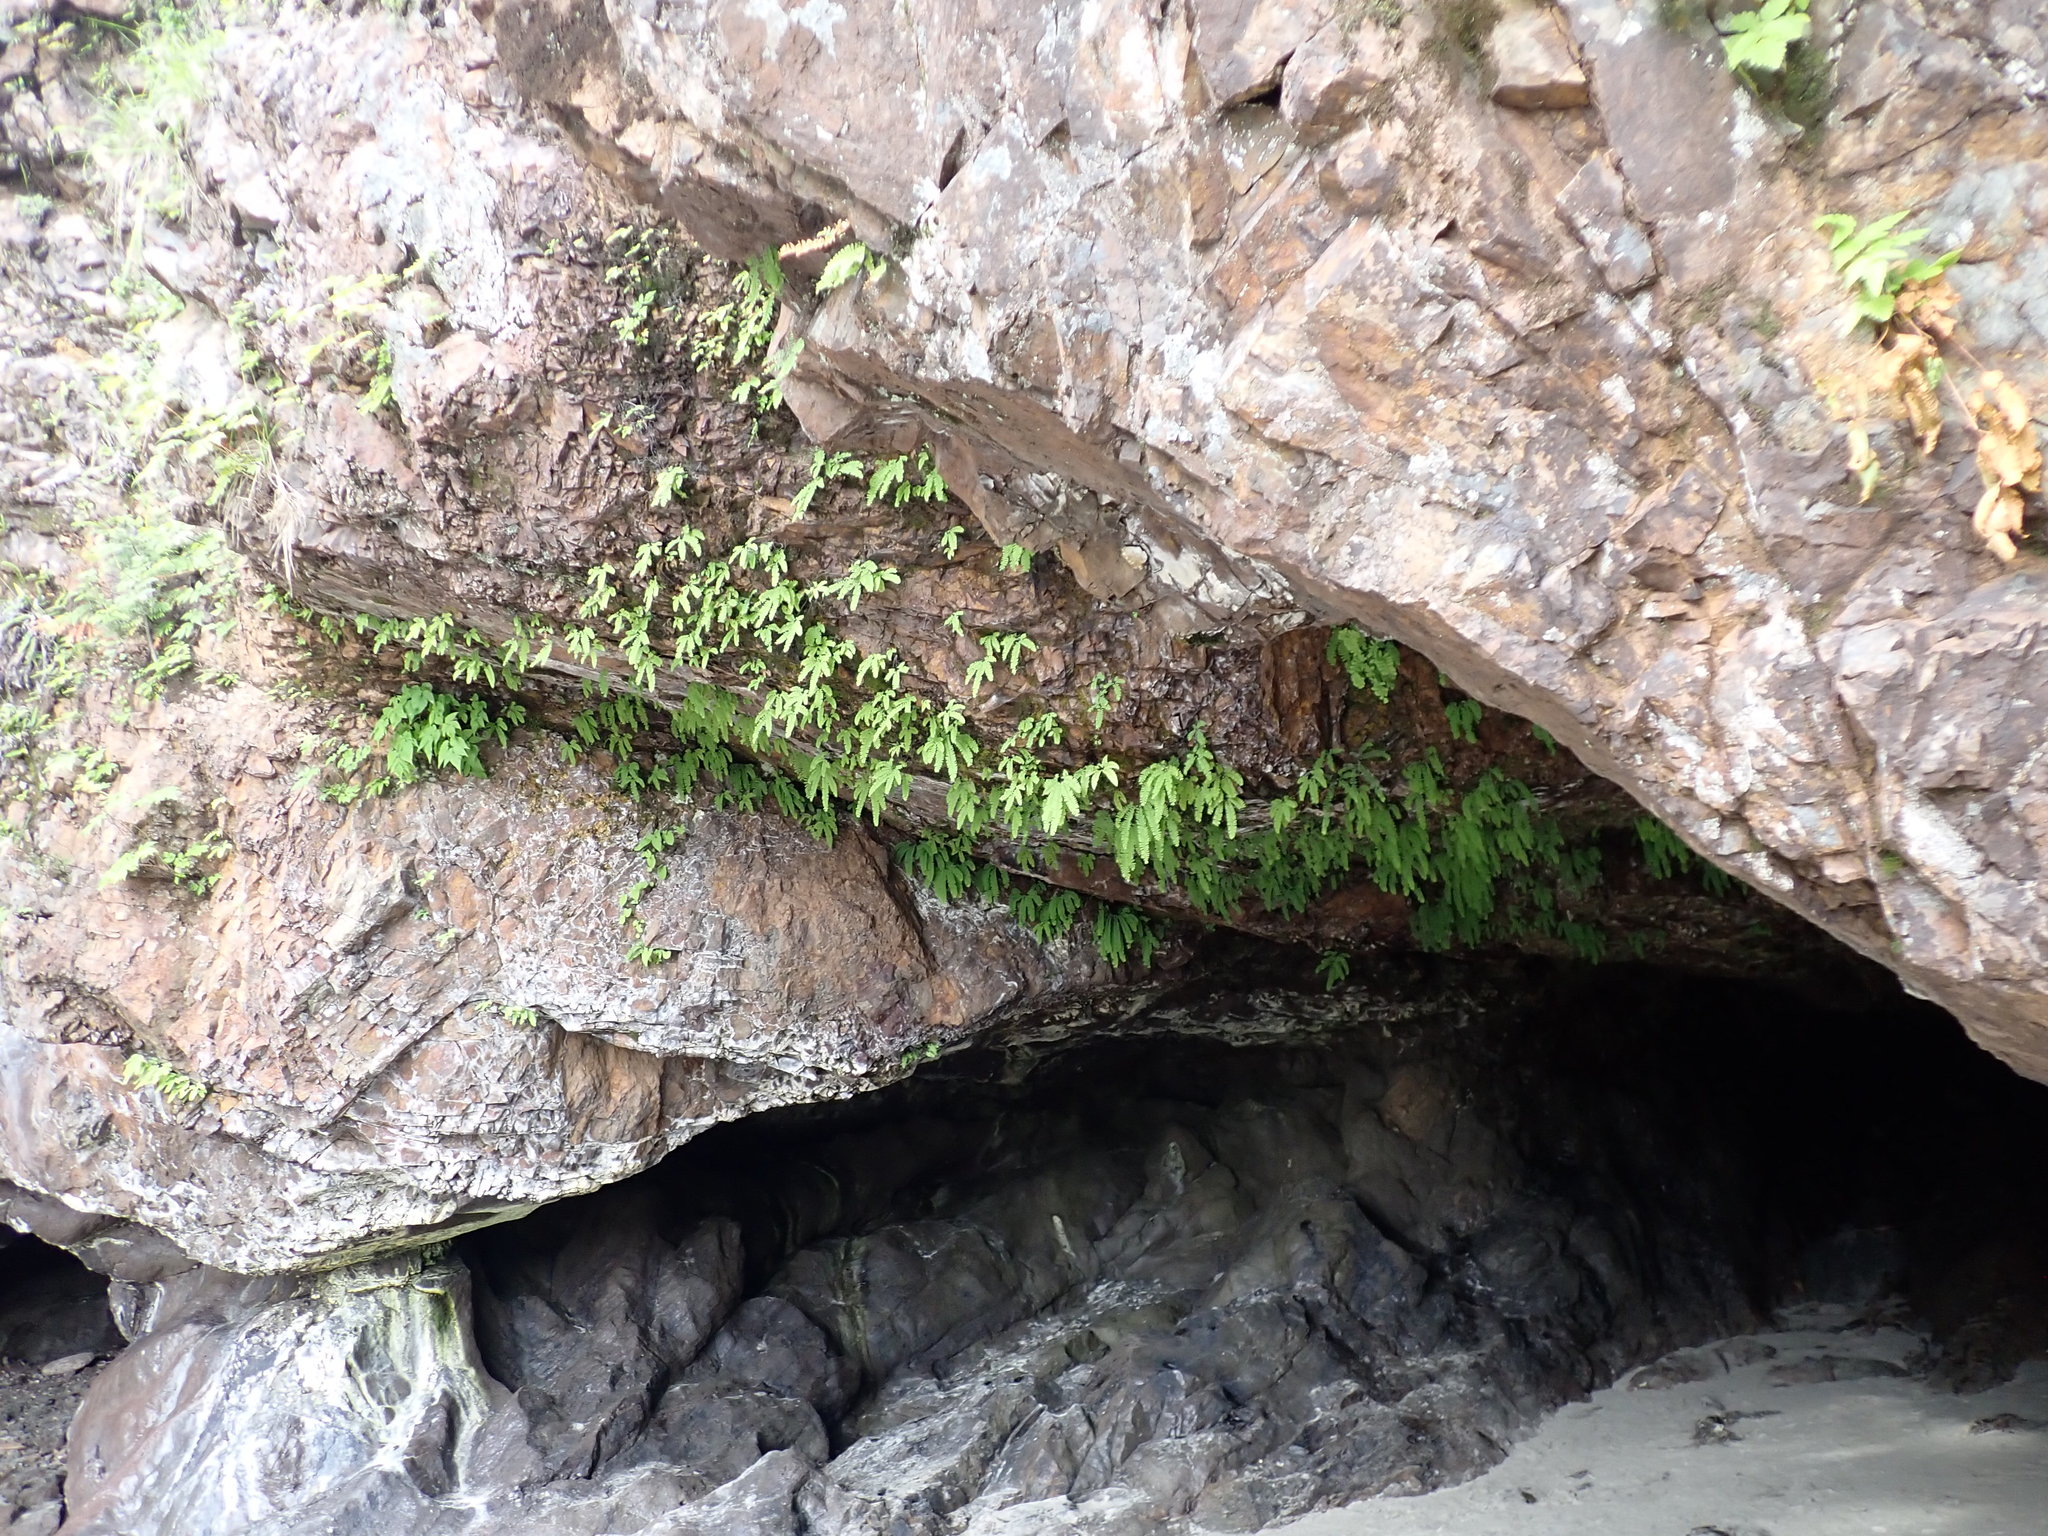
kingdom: Plantae
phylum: Tracheophyta
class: Polypodiopsida
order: Polypodiales
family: Pteridaceae
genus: Adiantum
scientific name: Adiantum aleuticum
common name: Aleutian maidenhair fern
